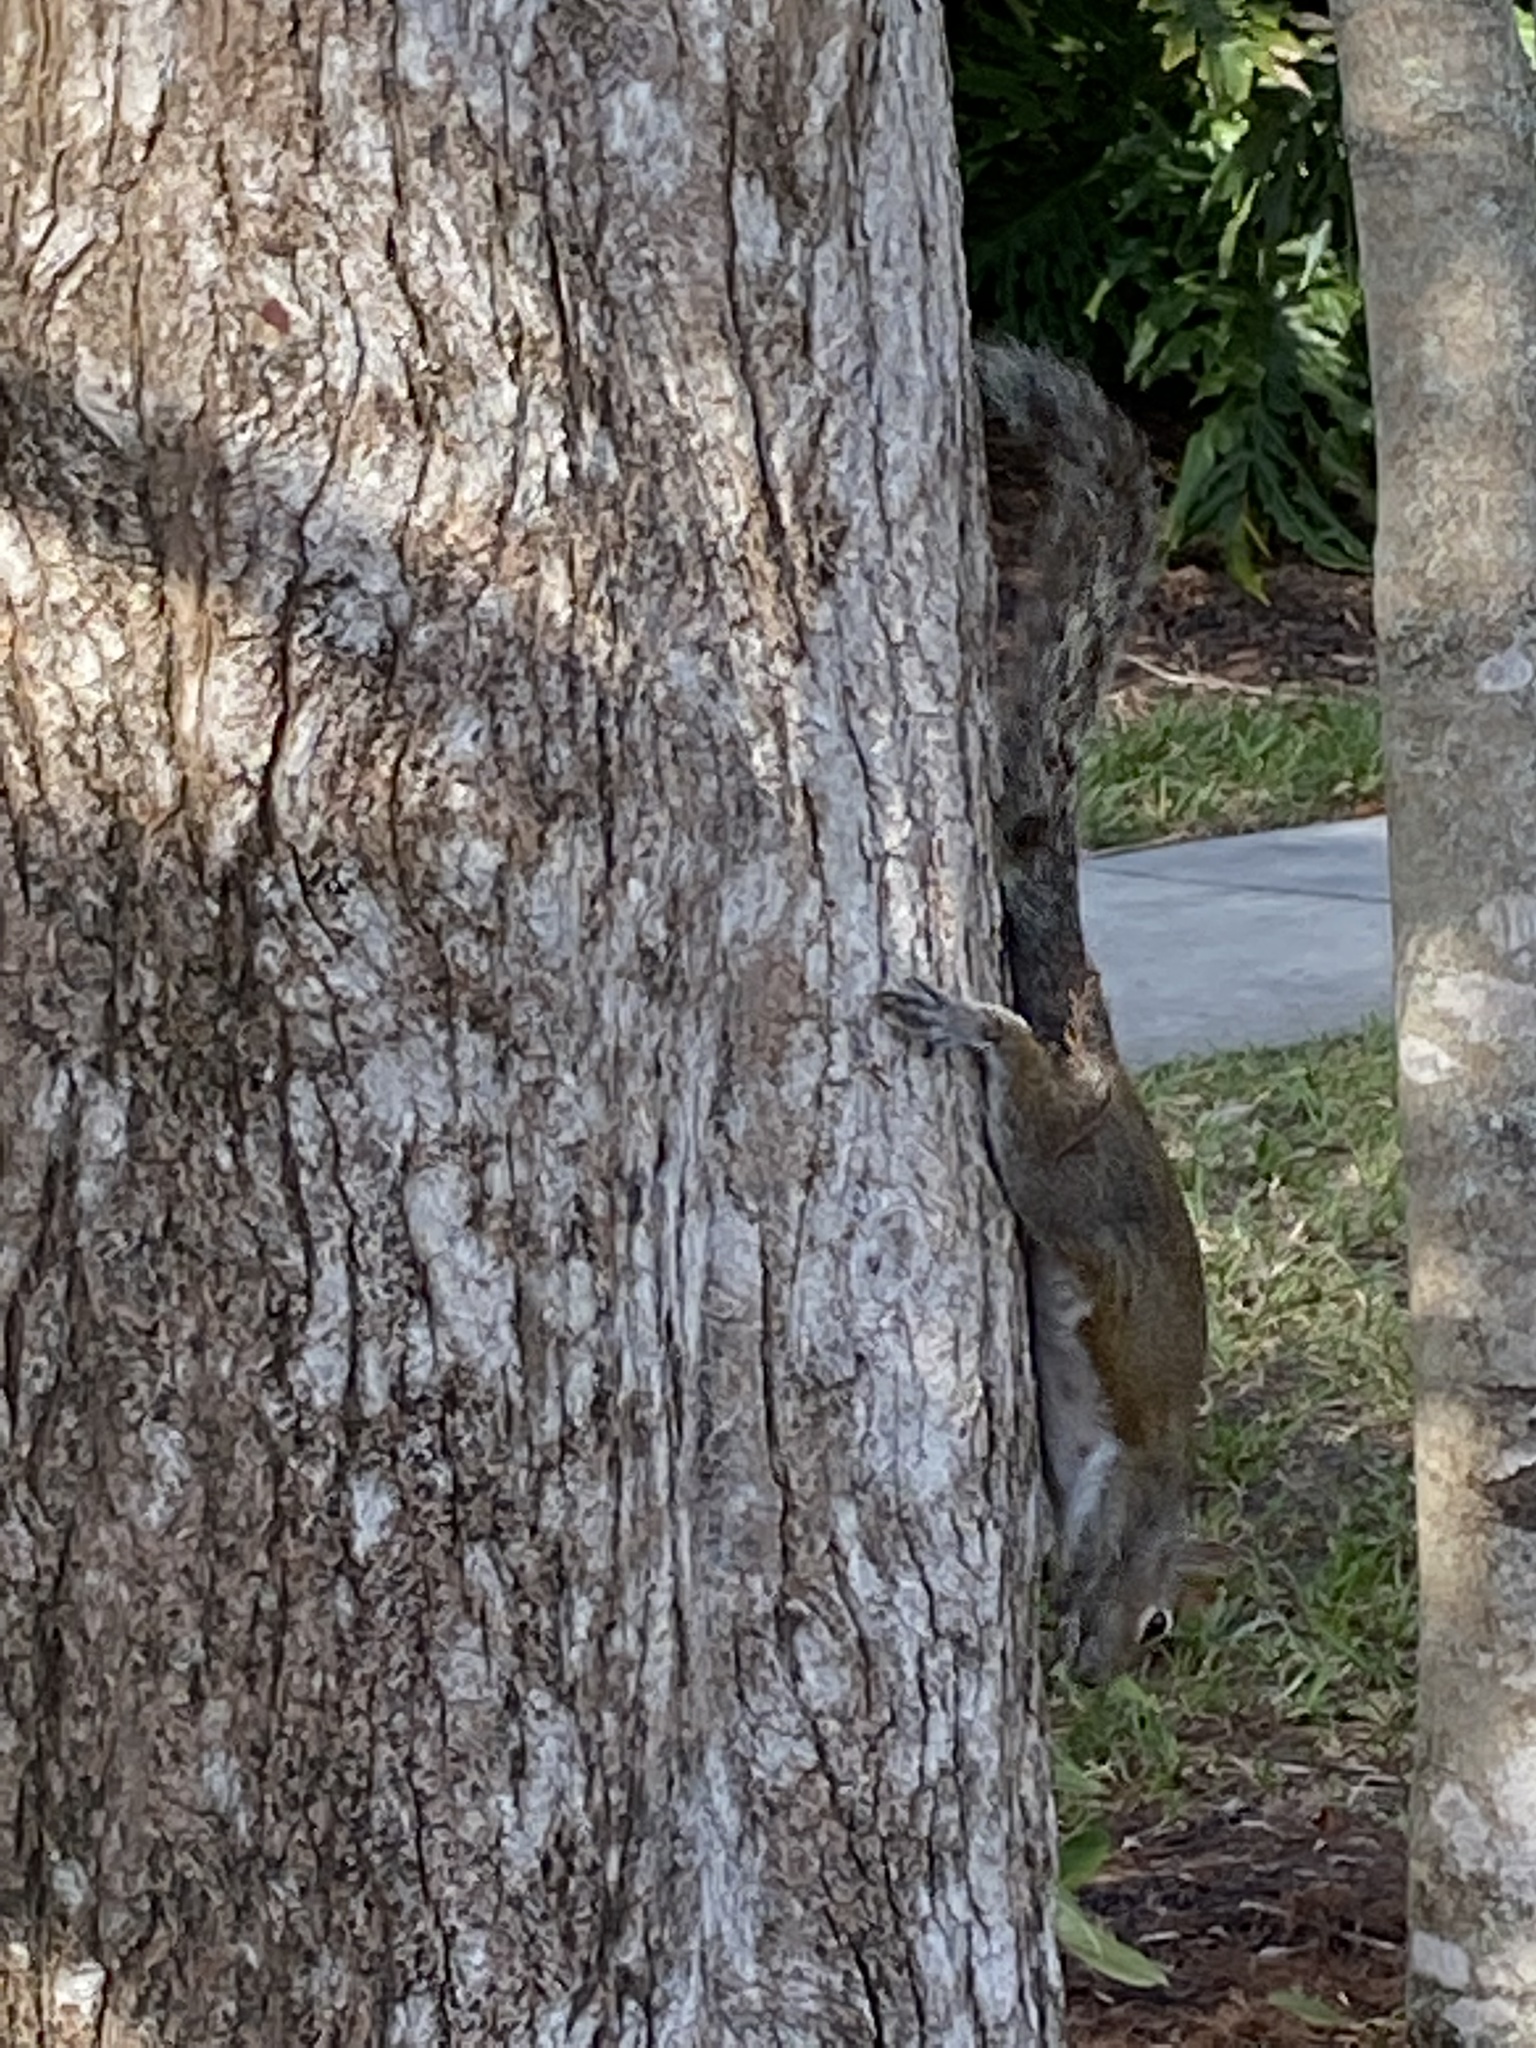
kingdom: Animalia
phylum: Chordata
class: Mammalia
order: Rodentia
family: Sciuridae
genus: Sciurus
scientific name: Sciurus carolinensis
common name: Eastern gray squirrel
